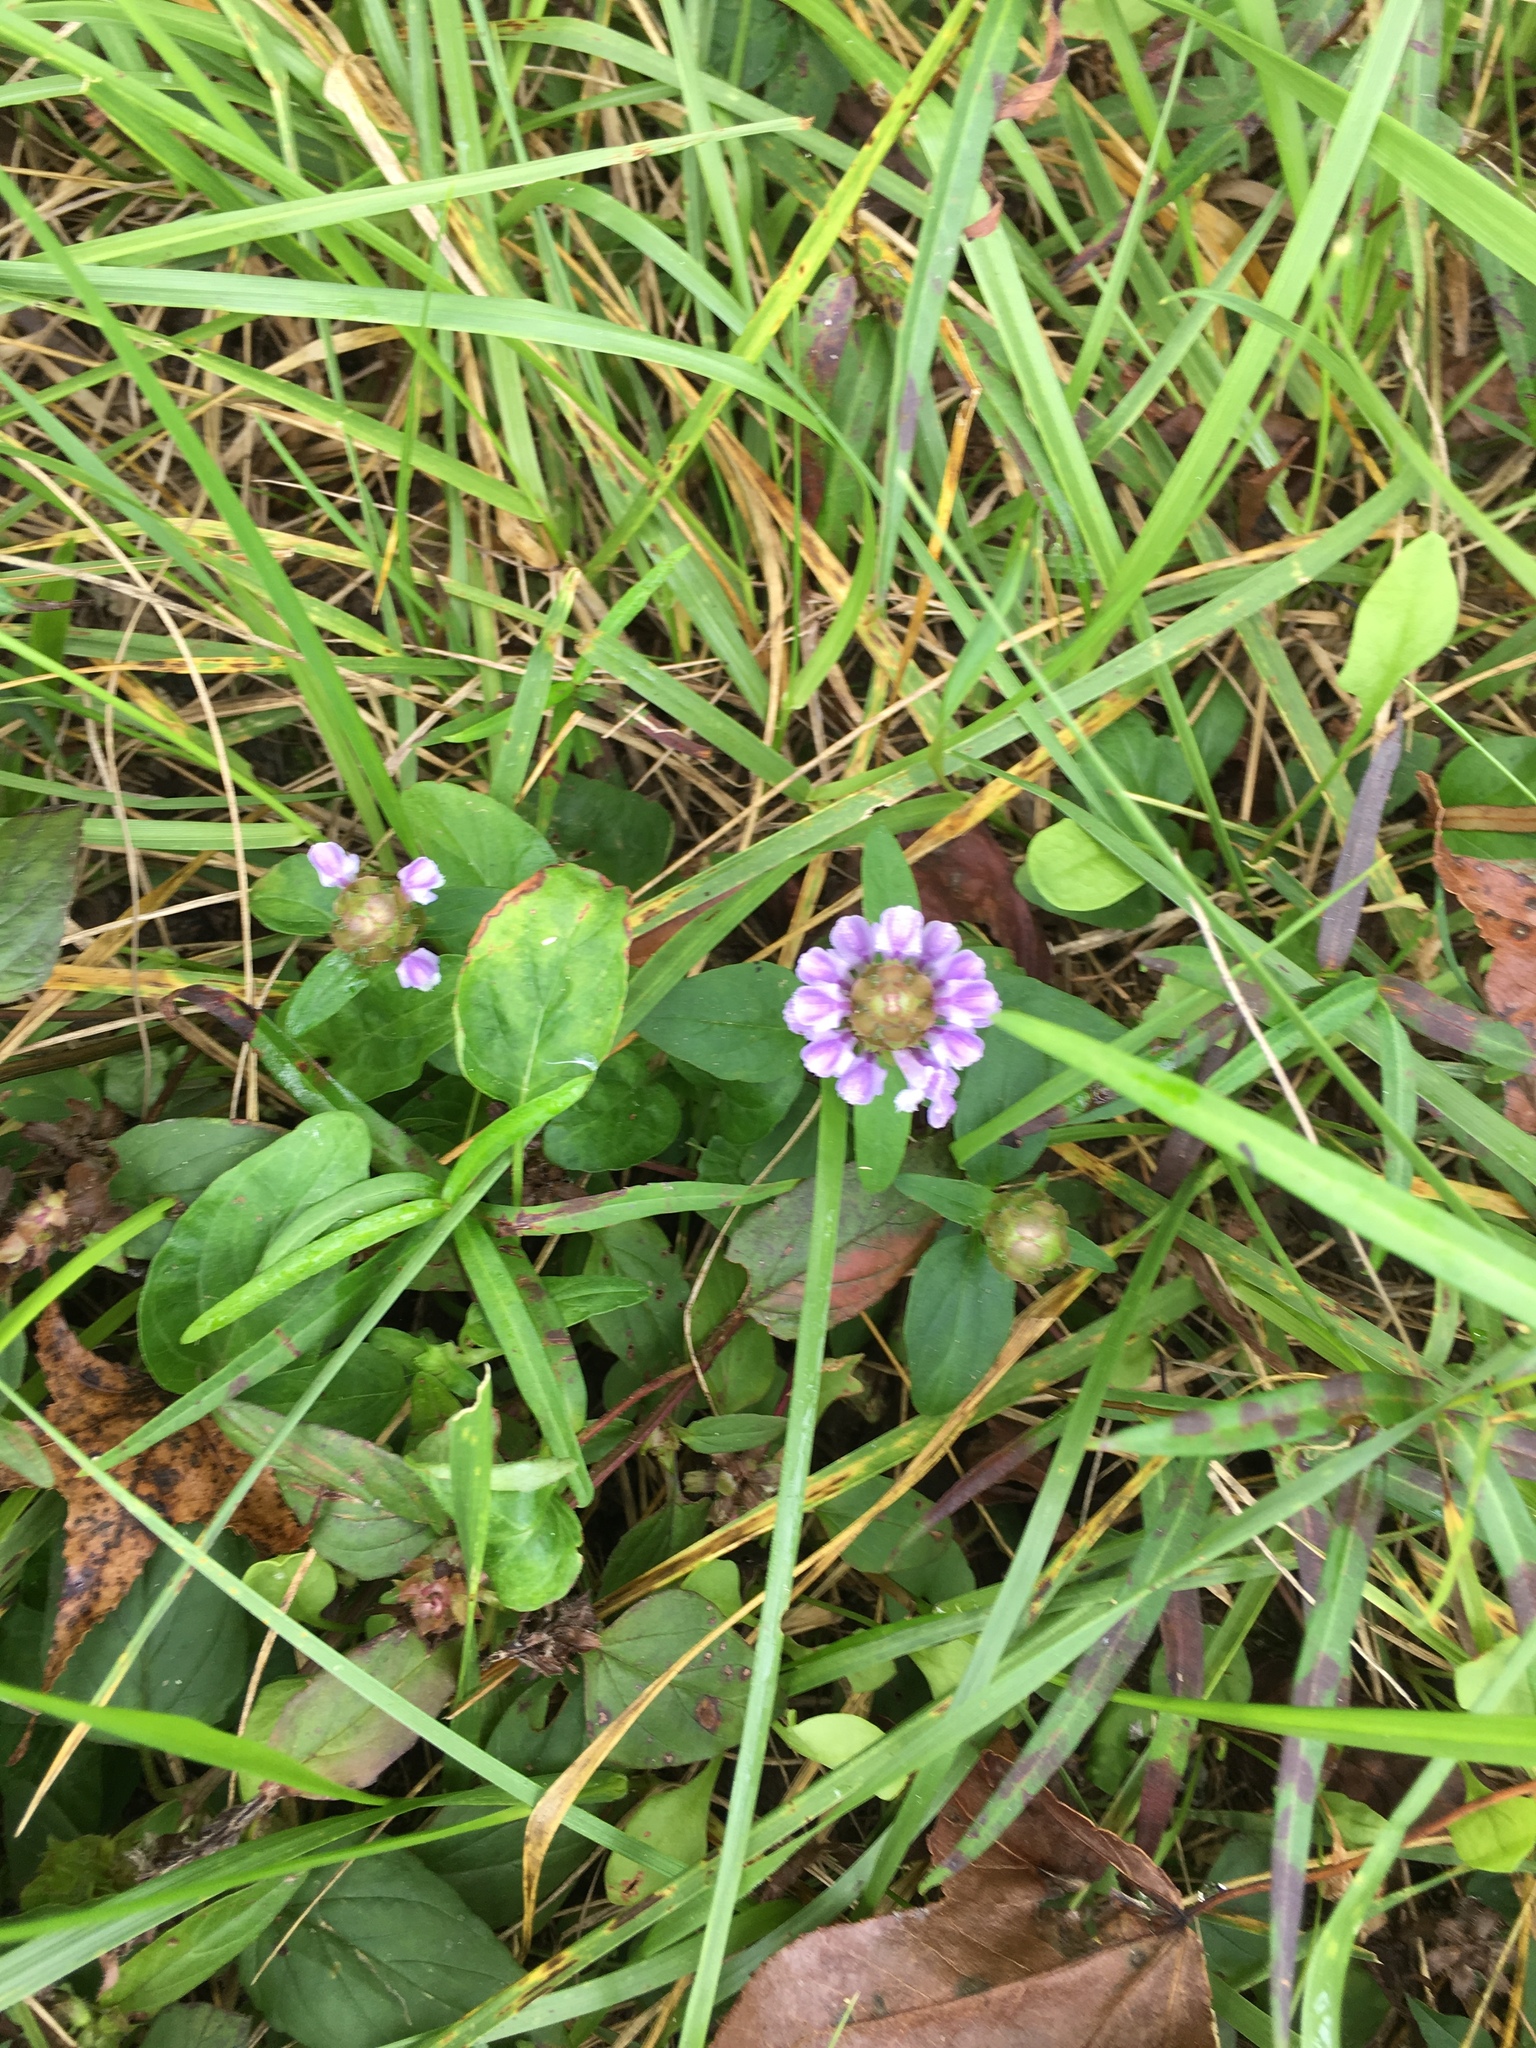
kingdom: Plantae
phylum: Tracheophyta
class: Magnoliopsida
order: Lamiales
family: Lamiaceae
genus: Prunella
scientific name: Prunella vulgaris
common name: Heal-all
